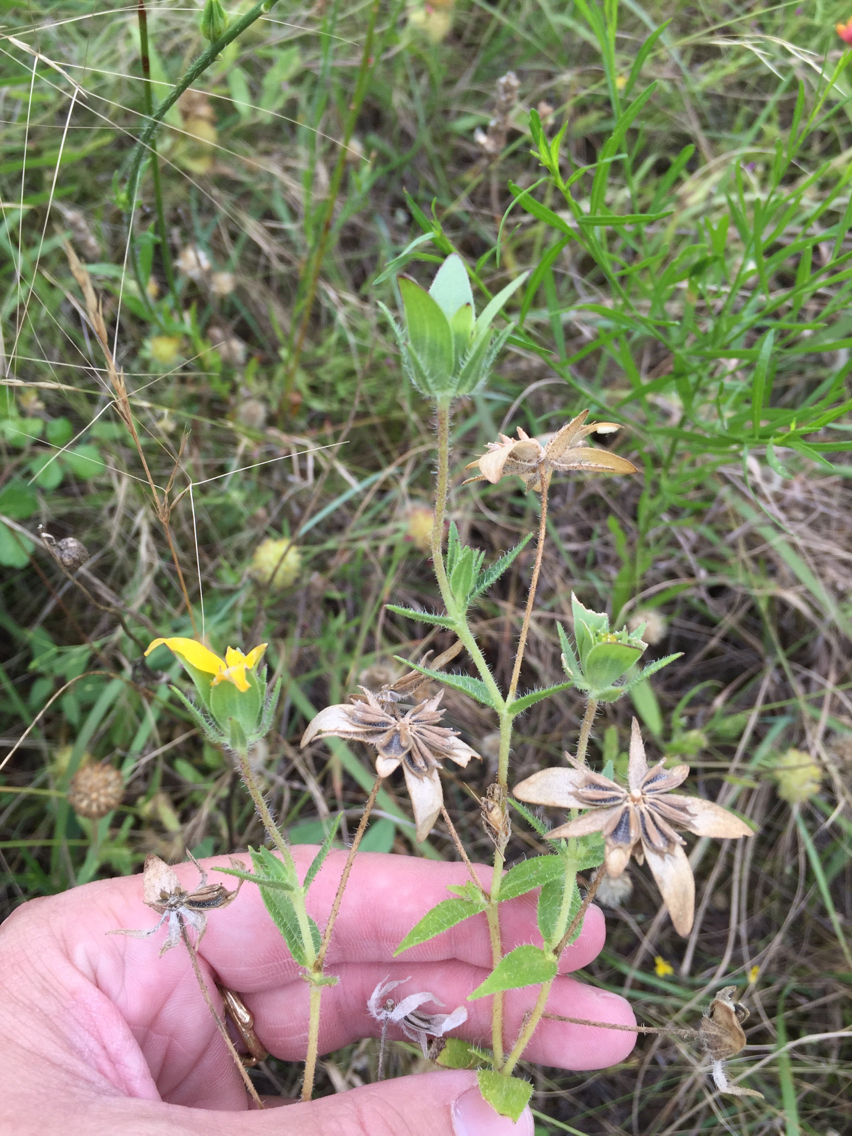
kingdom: Plantae
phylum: Tracheophyta
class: Magnoliopsida
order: Asterales
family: Asteraceae
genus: Lindheimera
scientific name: Lindheimera texana
